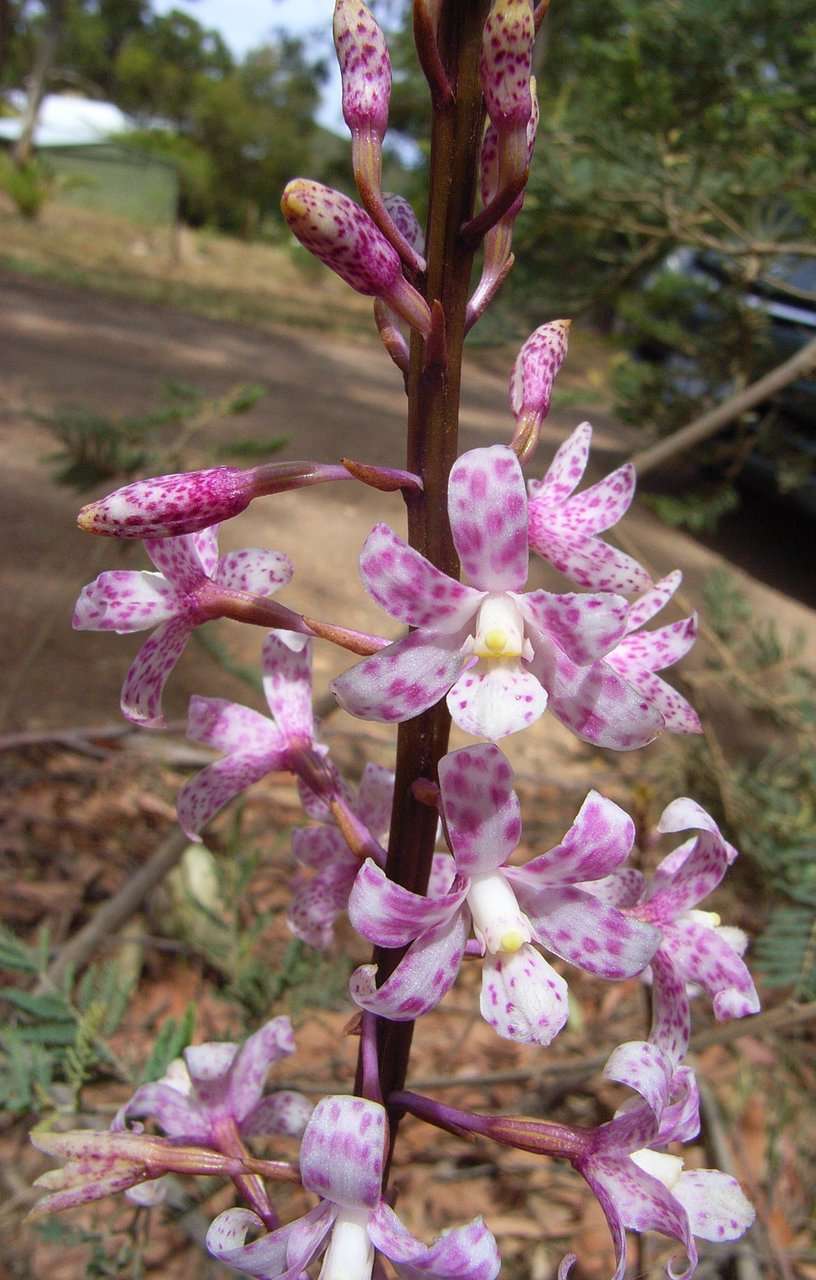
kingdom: Plantae
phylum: Tracheophyta
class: Liliopsida
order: Asparagales
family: Orchidaceae
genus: Dipodium
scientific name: Dipodium pardalinum
